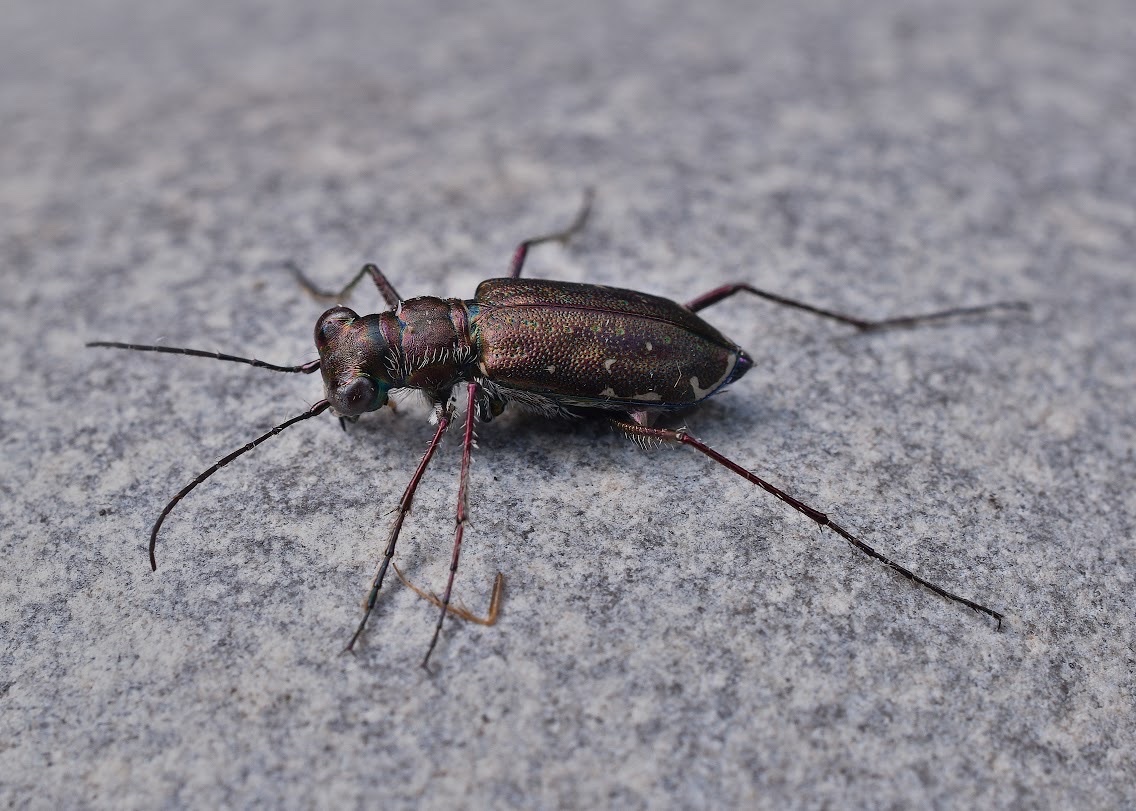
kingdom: Animalia
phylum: Arthropoda
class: Insecta
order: Coleoptera
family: Carabidae
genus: Cicindela
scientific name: Cicindela punctulata
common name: Punctured tiger beetle
